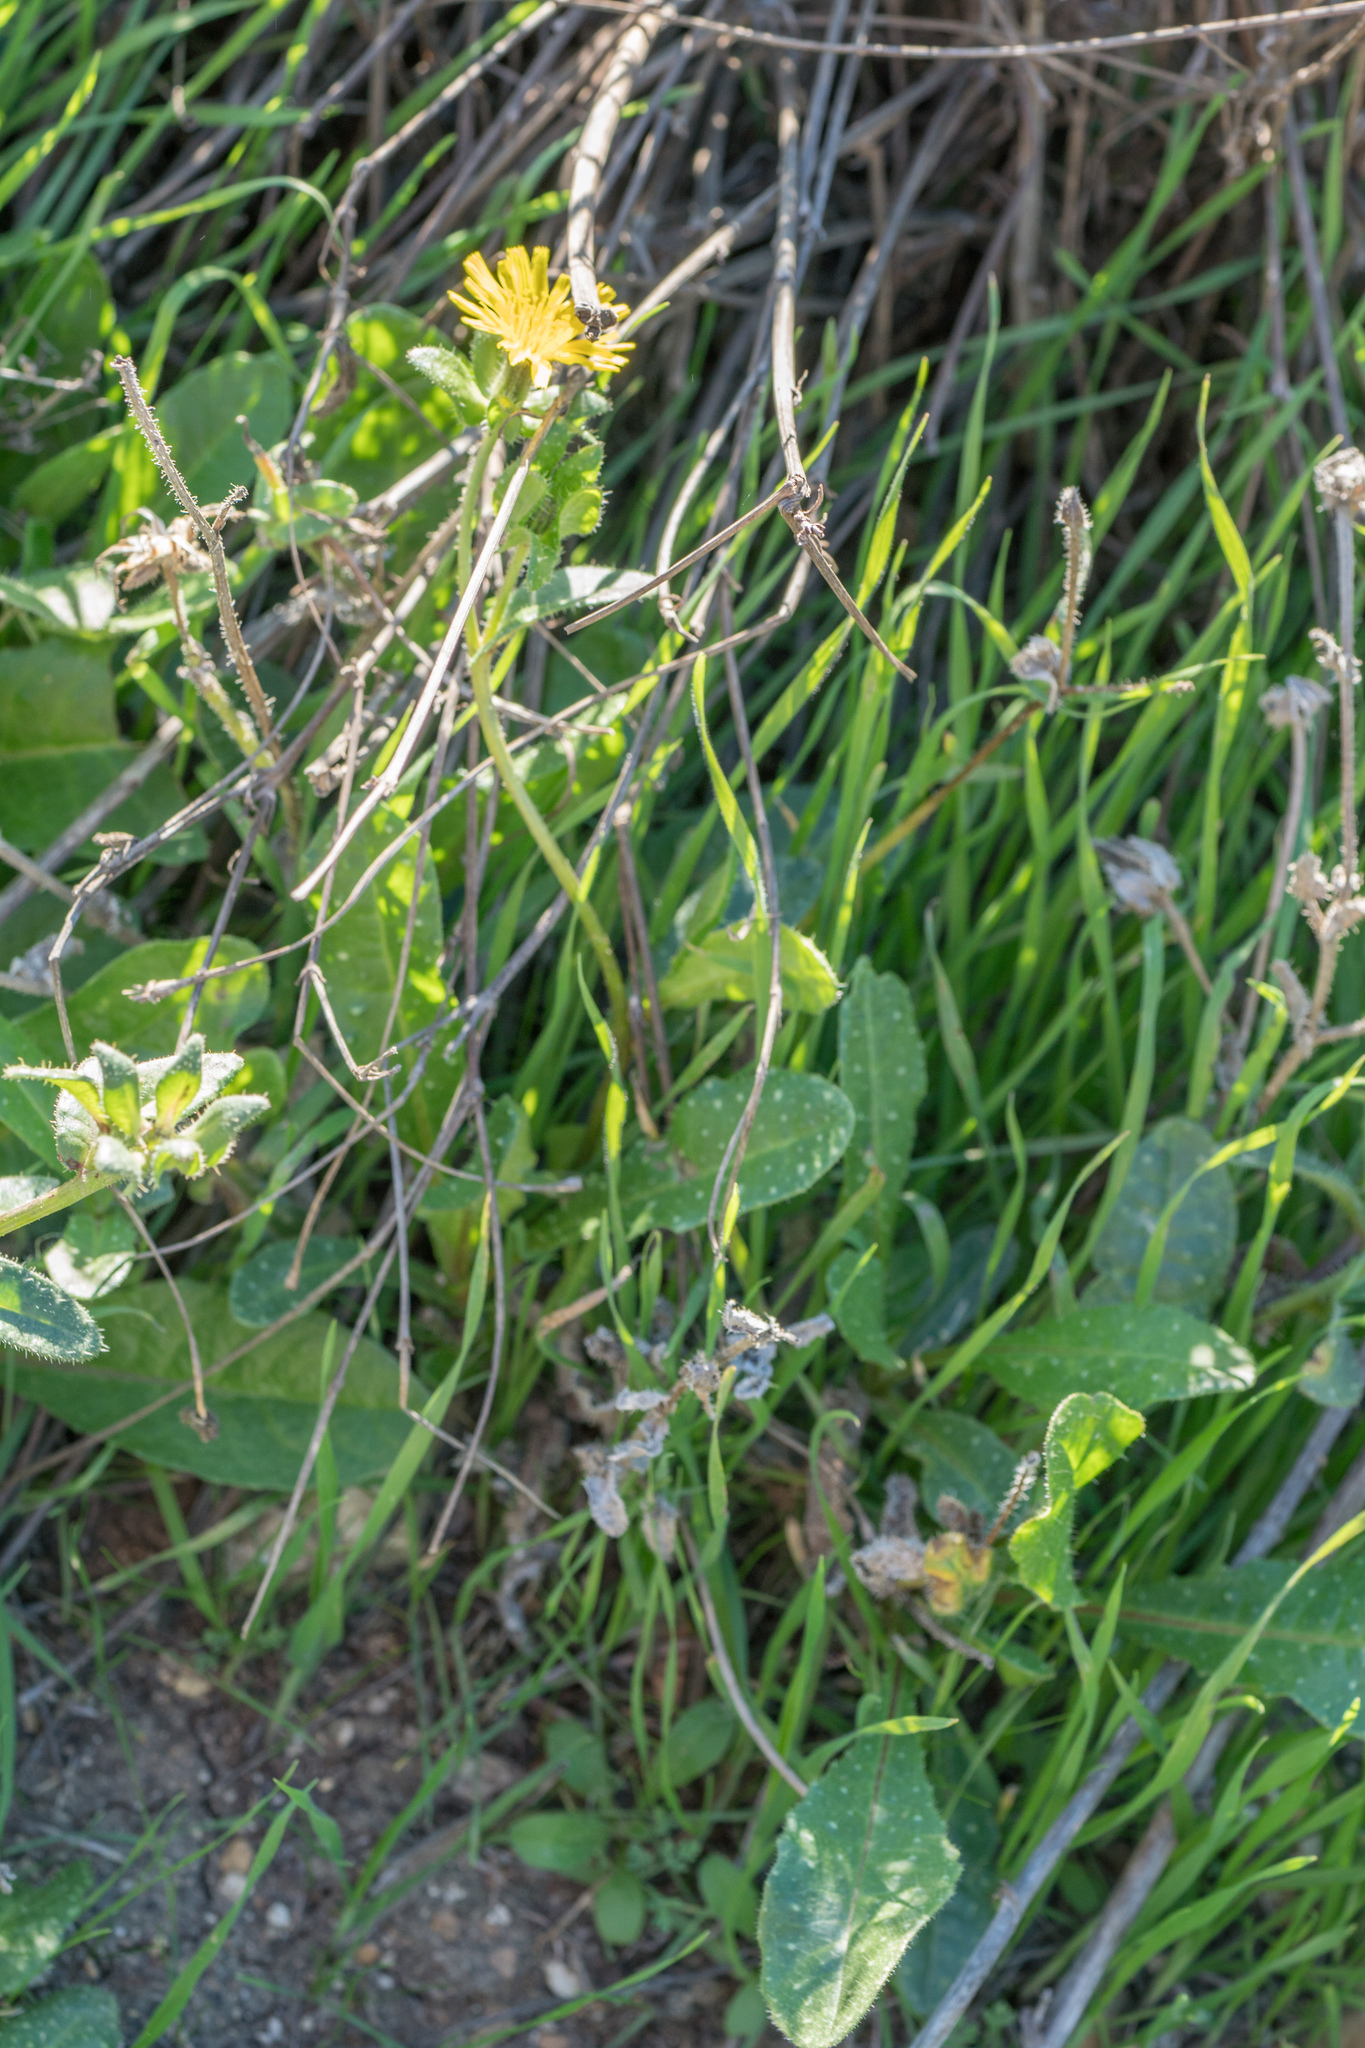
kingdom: Plantae
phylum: Tracheophyta
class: Magnoliopsida
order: Asterales
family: Asteraceae
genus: Helminthotheca
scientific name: Helminthotheca echioides
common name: Ox-tongue
